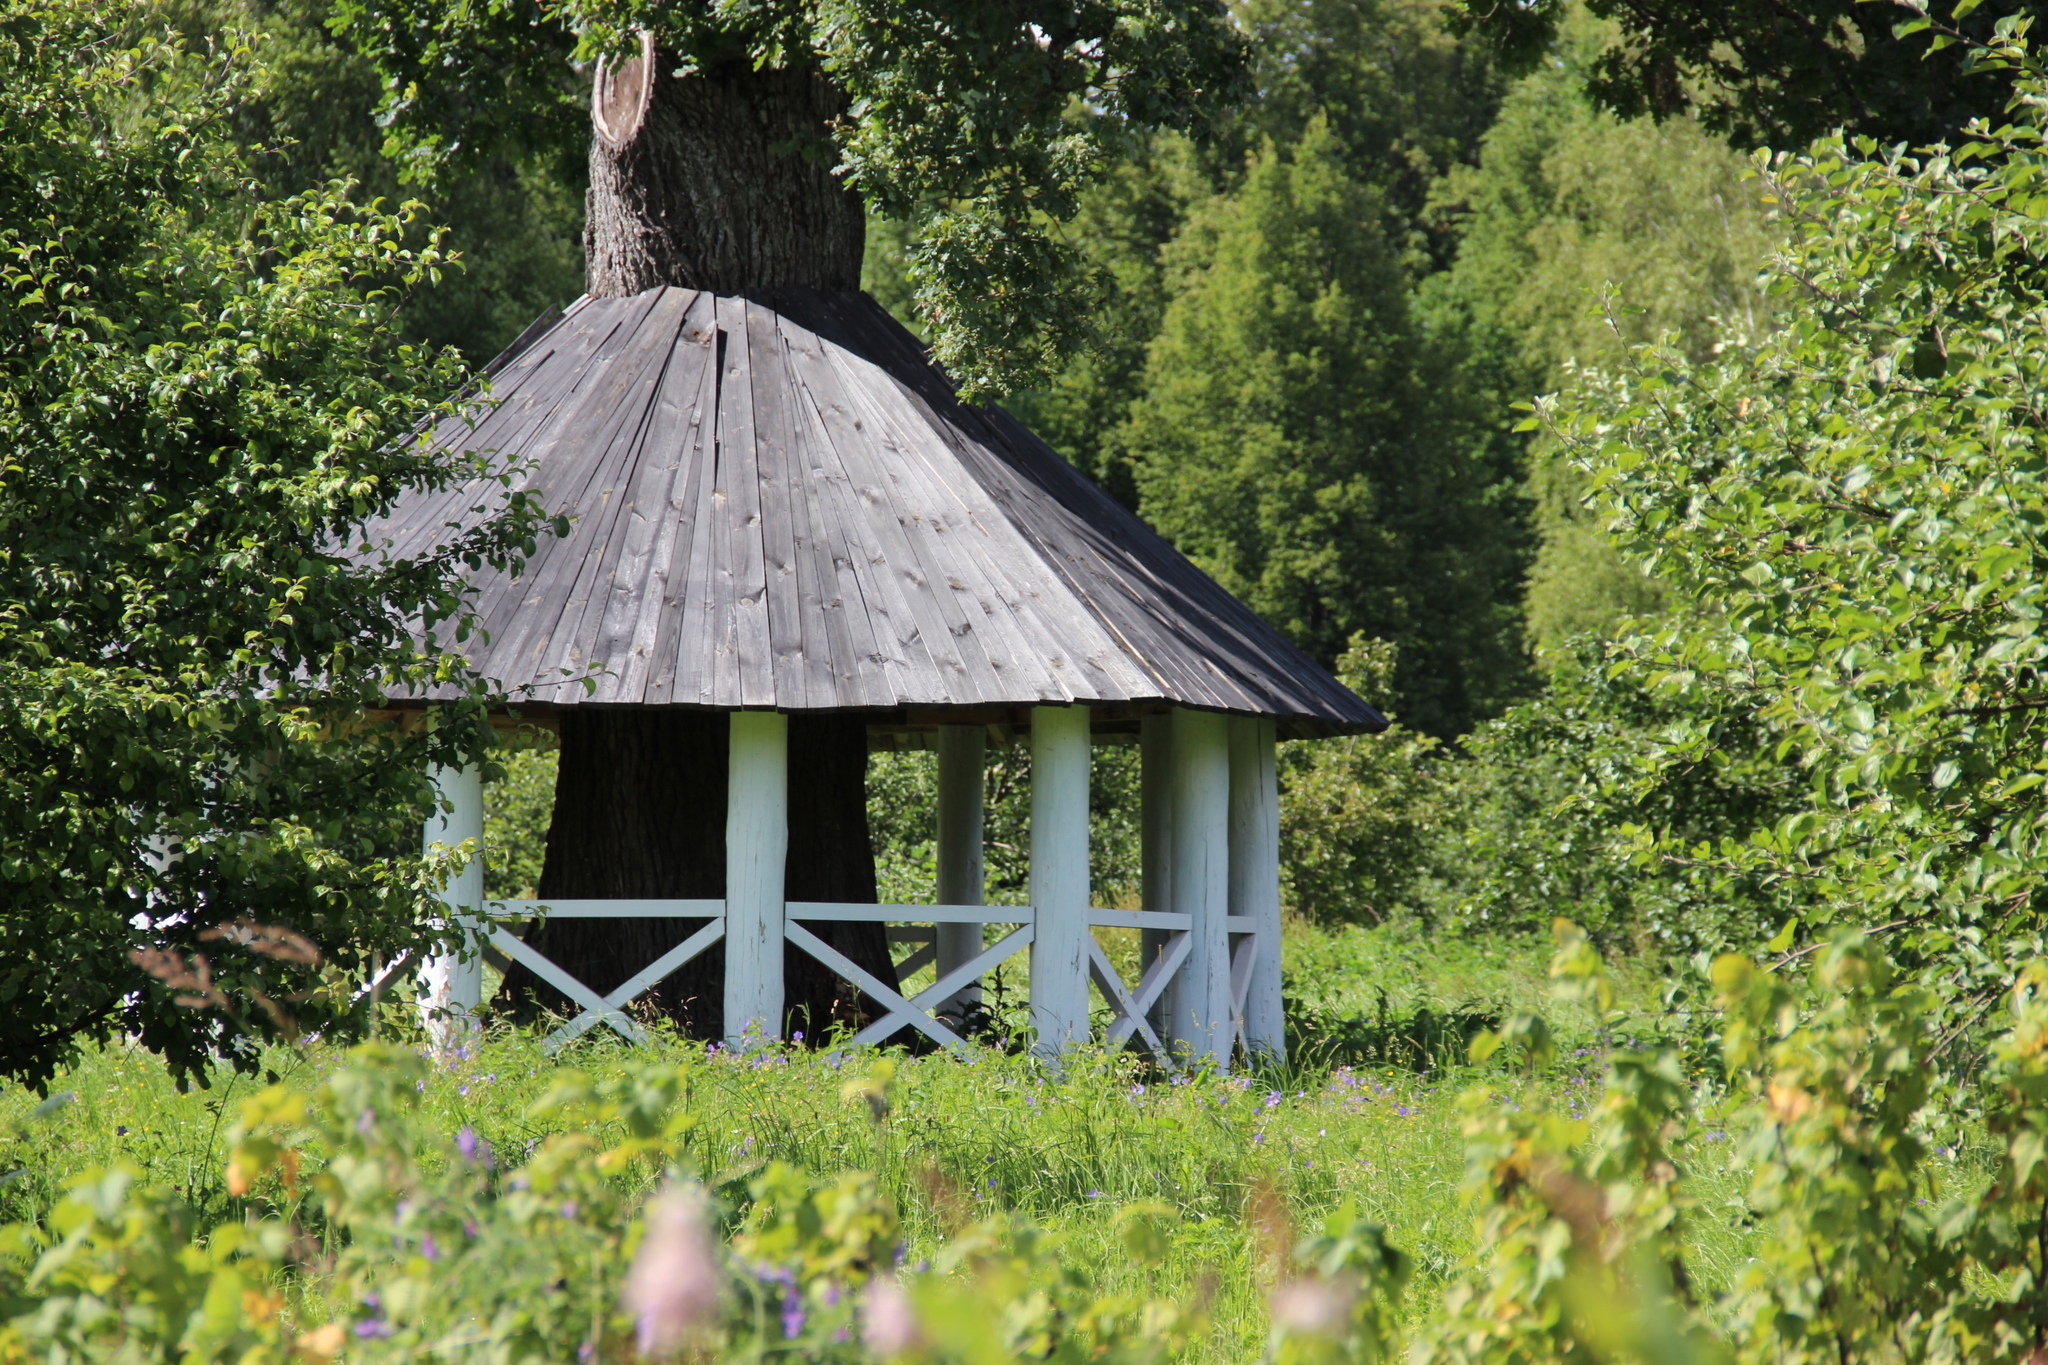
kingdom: Plantae
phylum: Tracheophyta
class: Magnoliopsida
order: Fagales
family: Fagaceae
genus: Quercus
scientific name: Quercus robur
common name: Pedunculate oak
